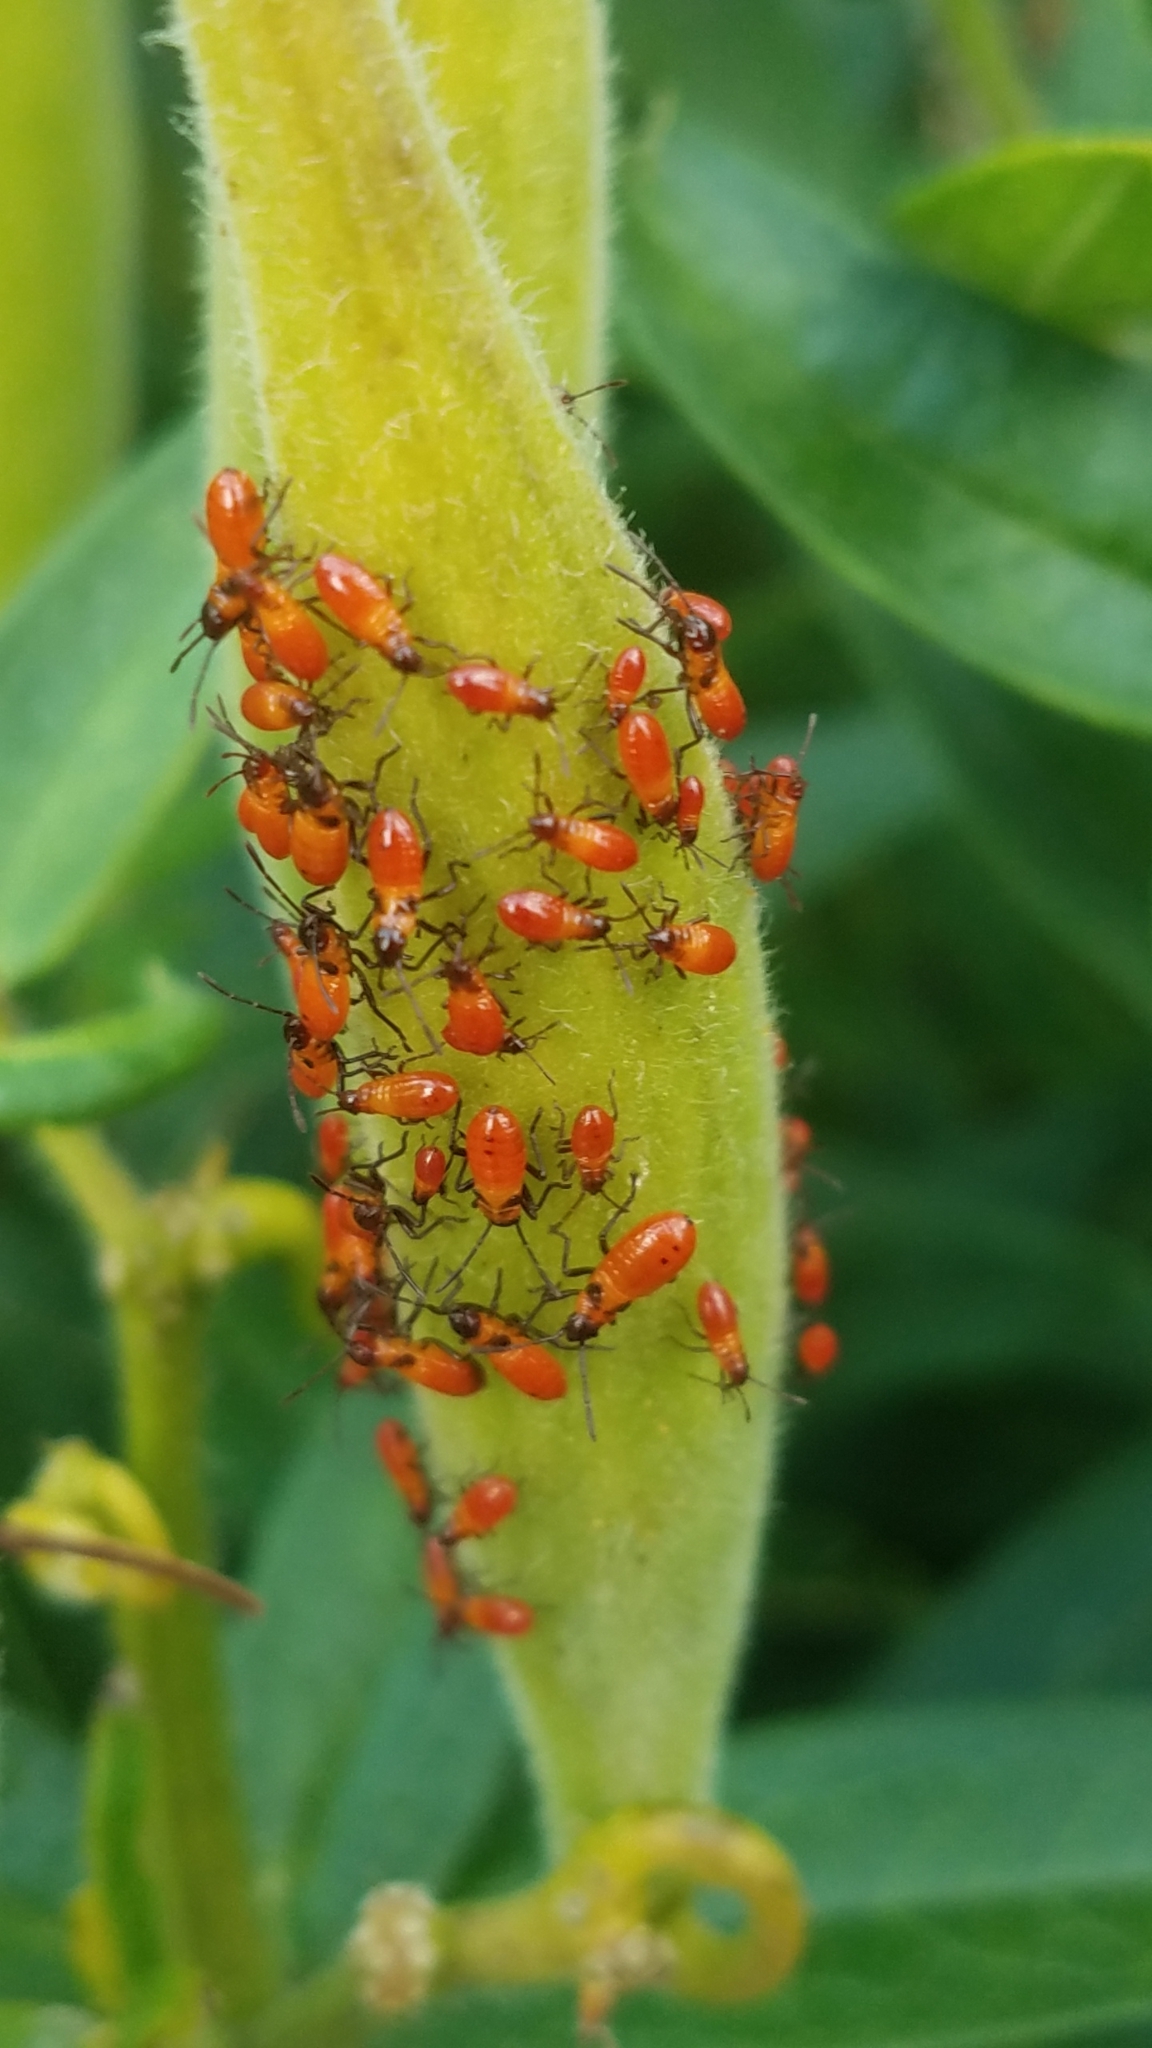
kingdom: Animalia
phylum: Arthropoda
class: Insecta
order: Hemiptera
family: Lygaeidae
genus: Oncopeltus
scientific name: Oncopeltus fasciatus
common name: Large milkweed bug
